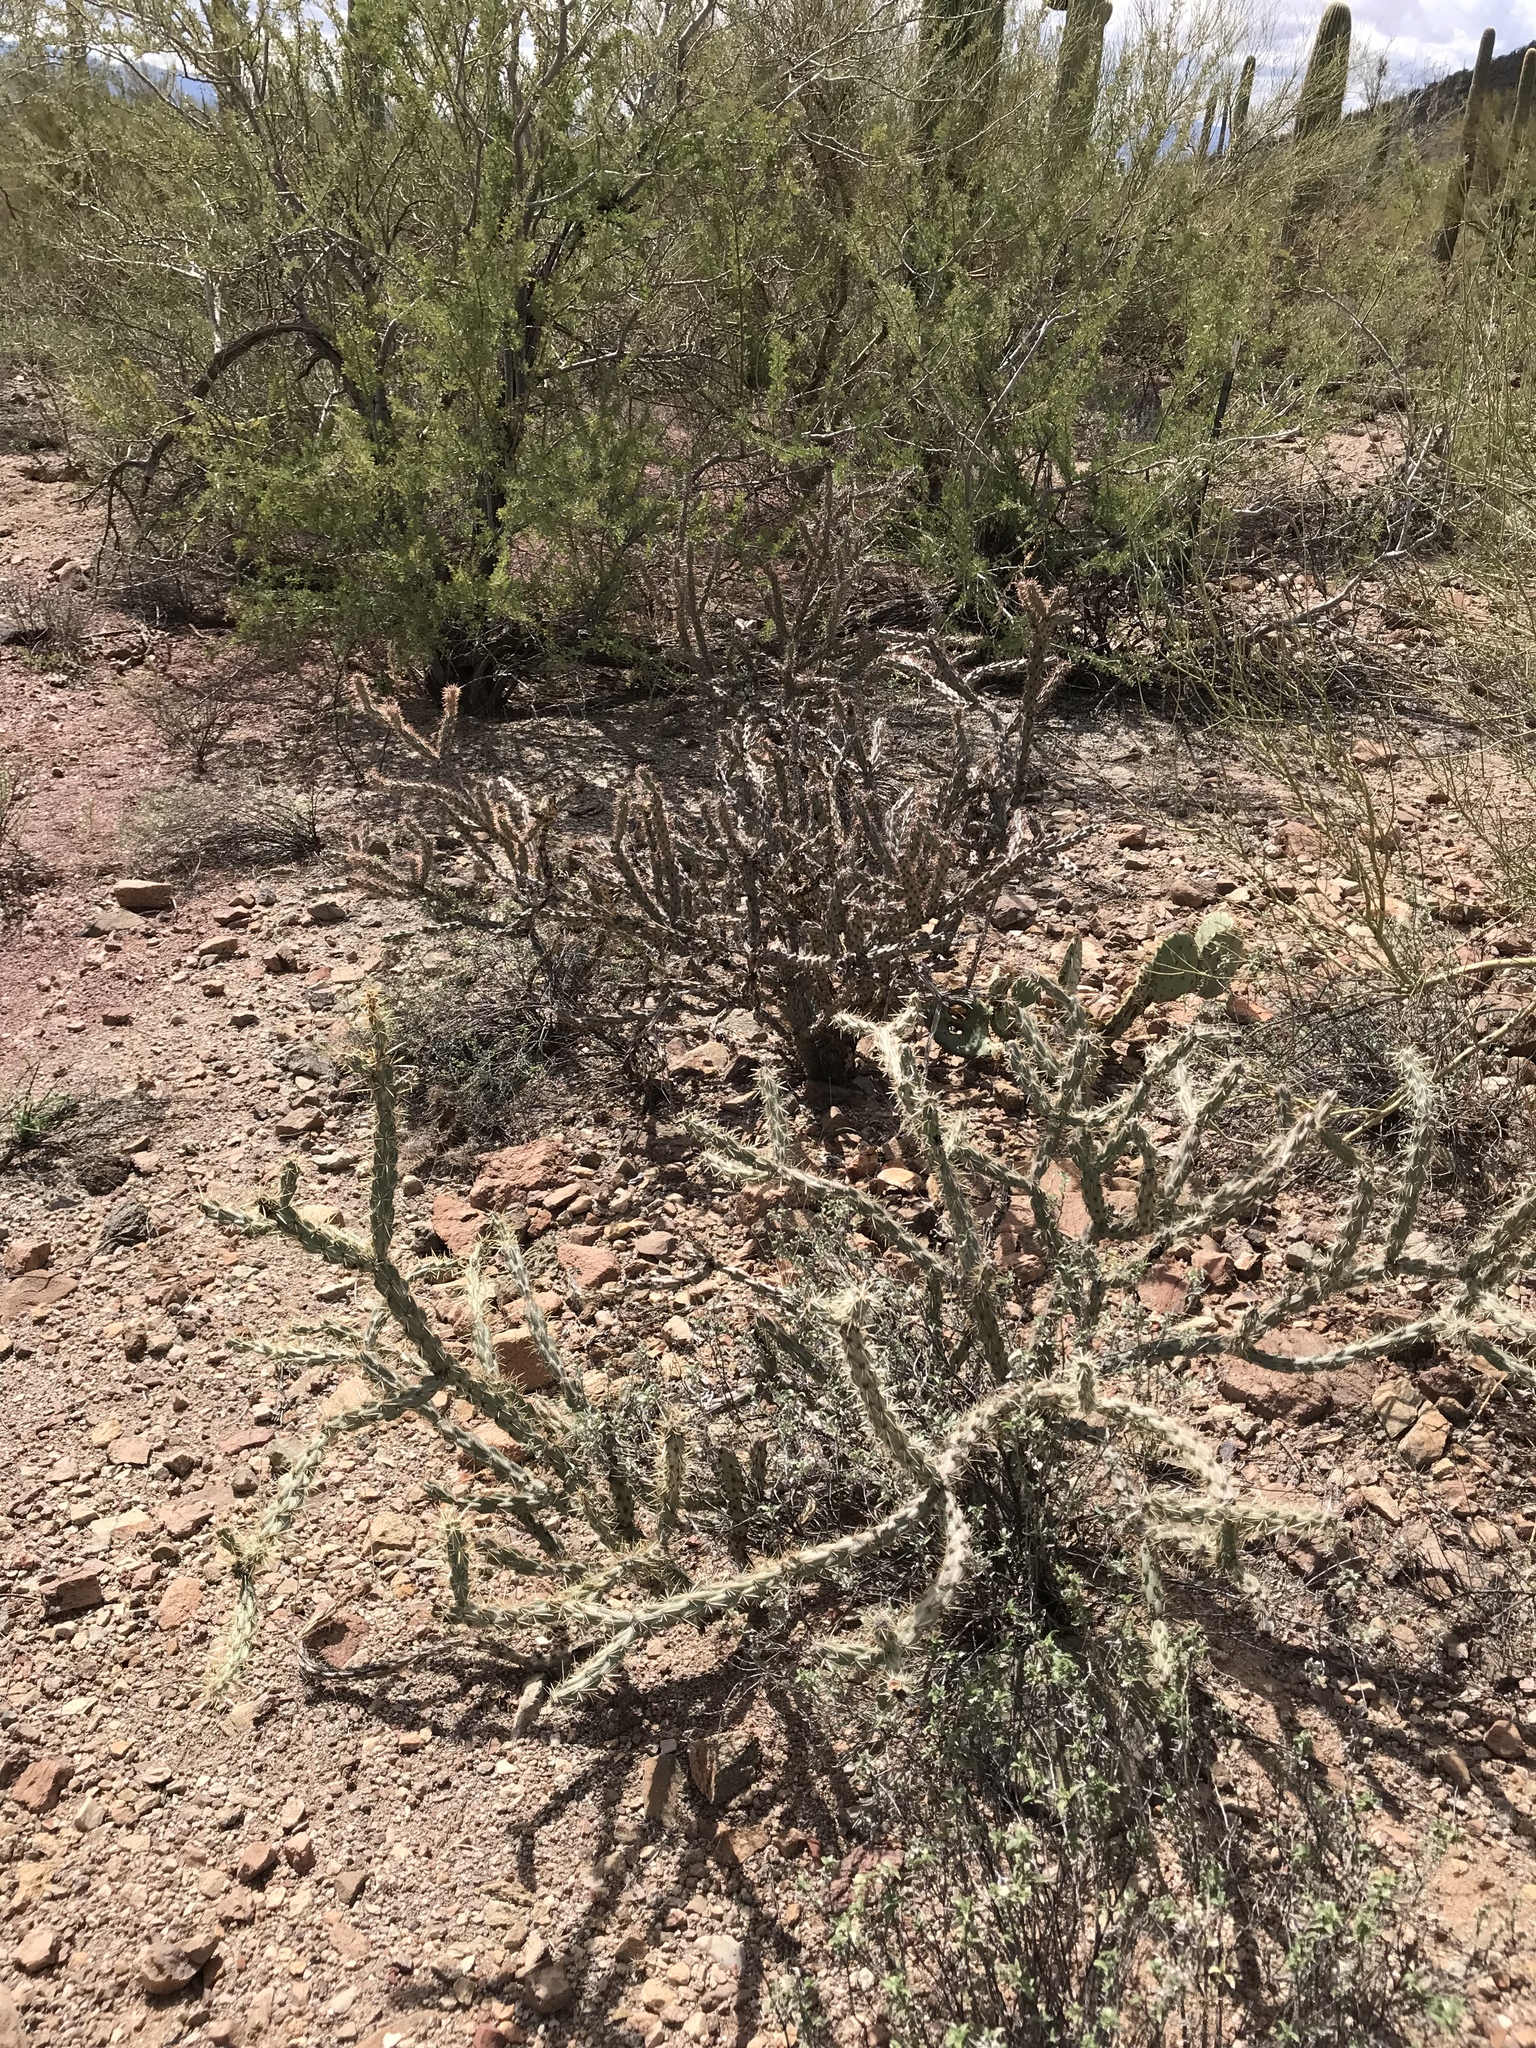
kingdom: Plantae
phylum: Tracheophyta
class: Magnoliopsida
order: Caryophyllales
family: Cactaceae
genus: Cylindropuntia
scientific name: Cylindropuntia acanthocarpa
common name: Buckhorn cholla
